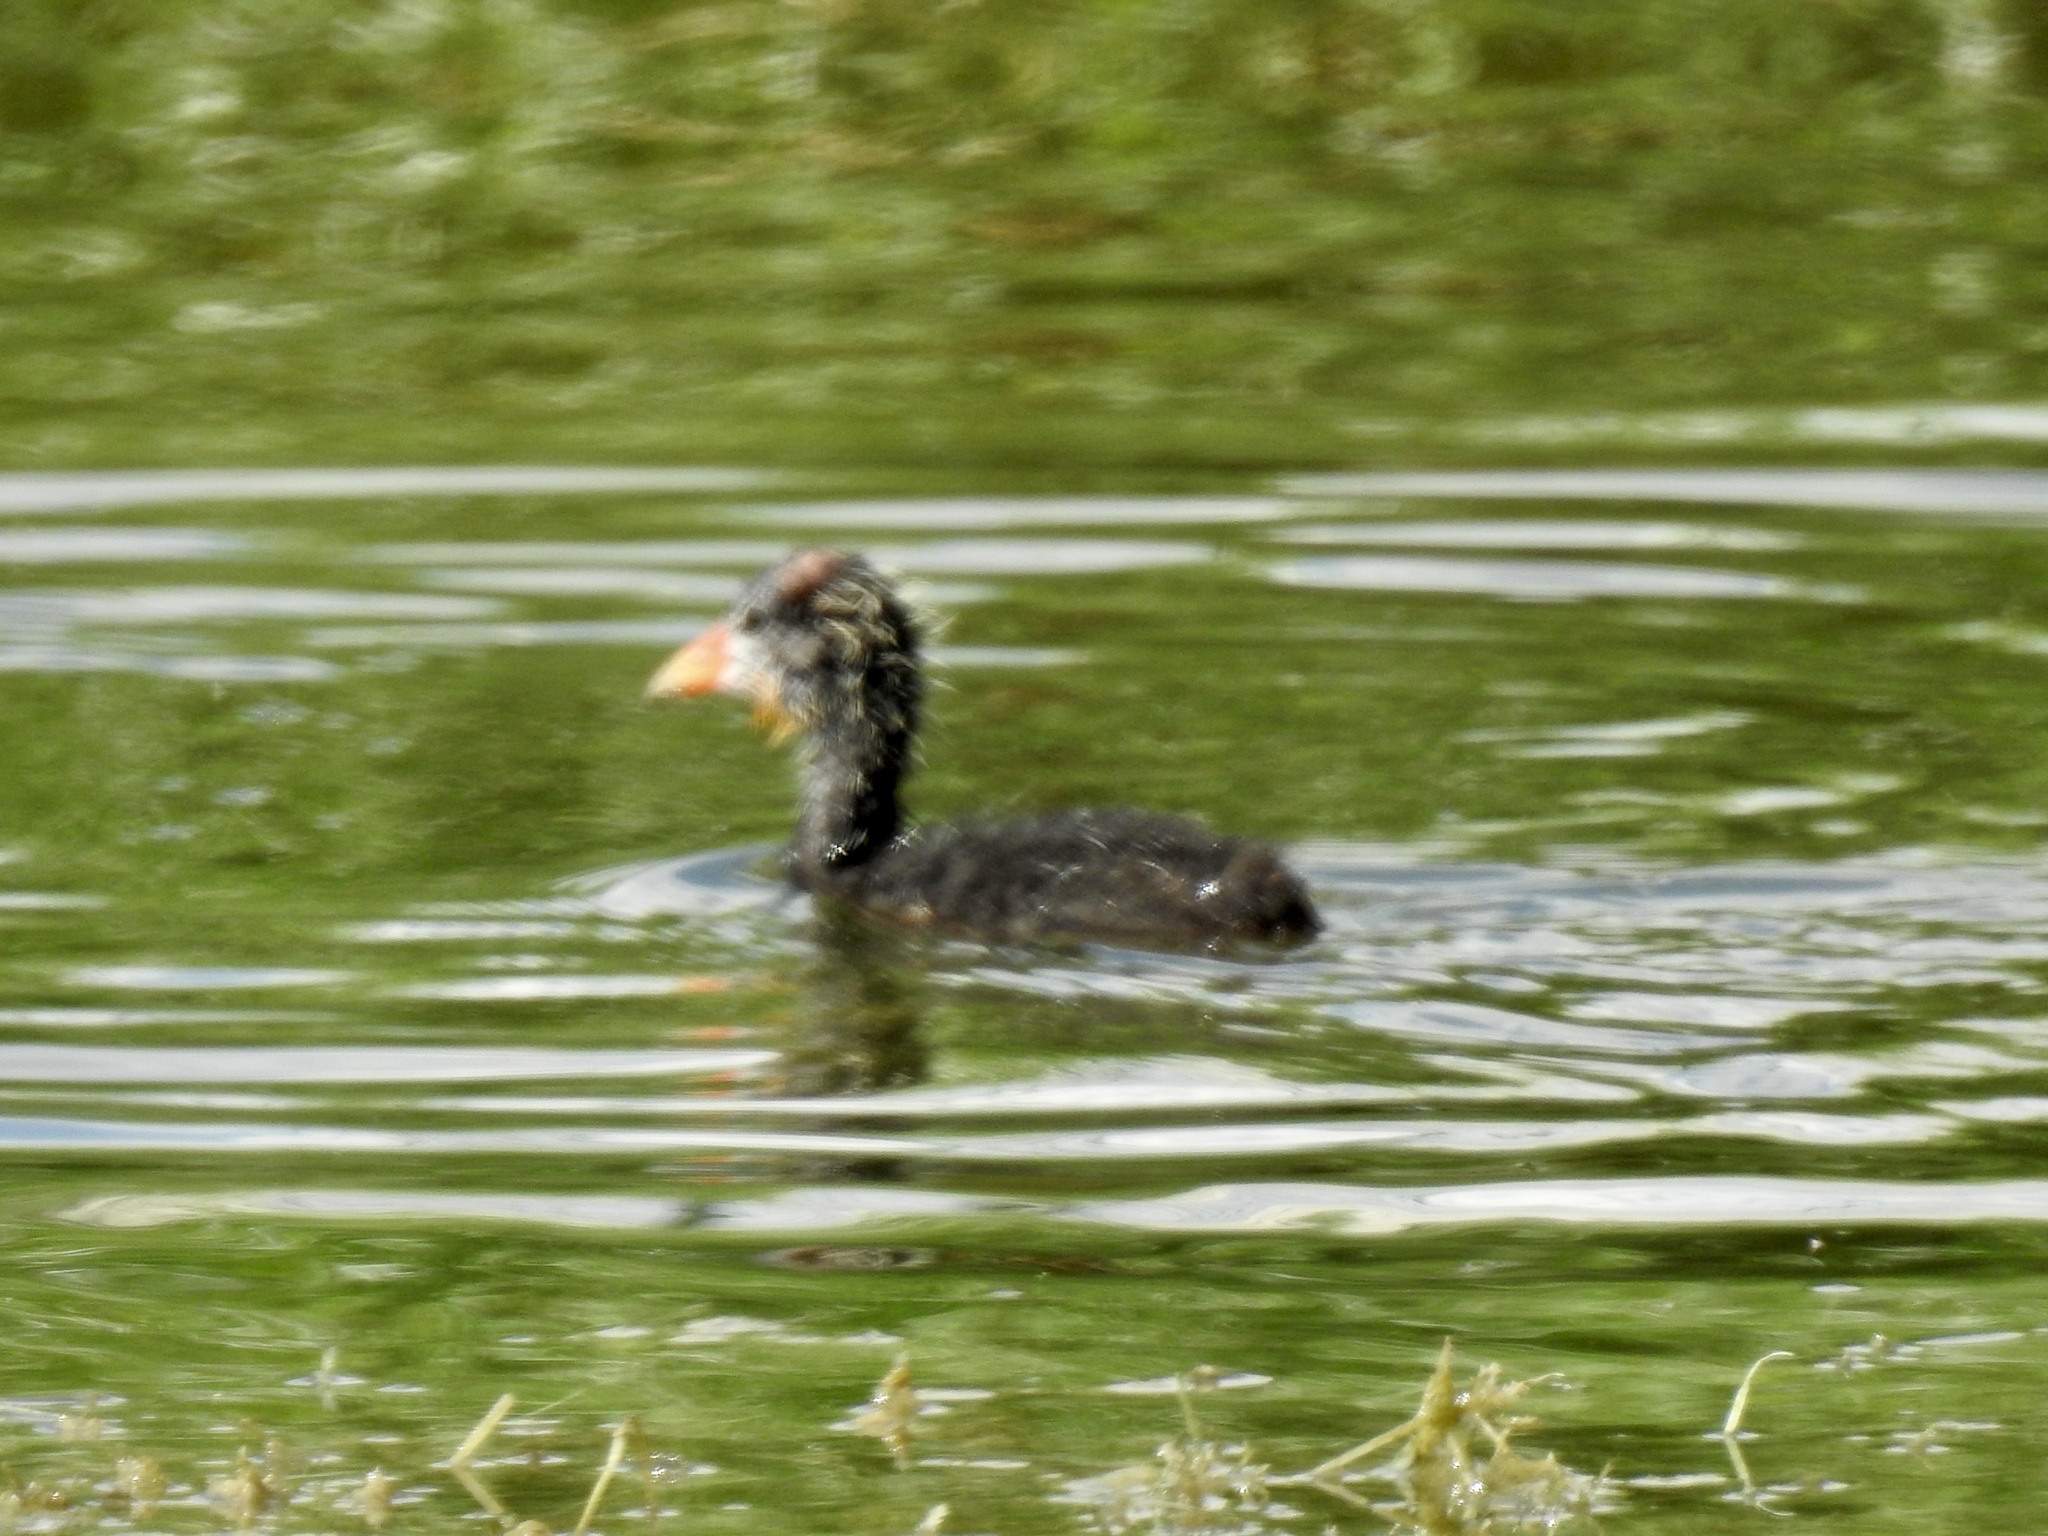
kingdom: Animalia
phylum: Chordata
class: Aves
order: Gruiformes
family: Rallidae
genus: Gallinula
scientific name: Gallinula chloropus
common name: Common moorhen
